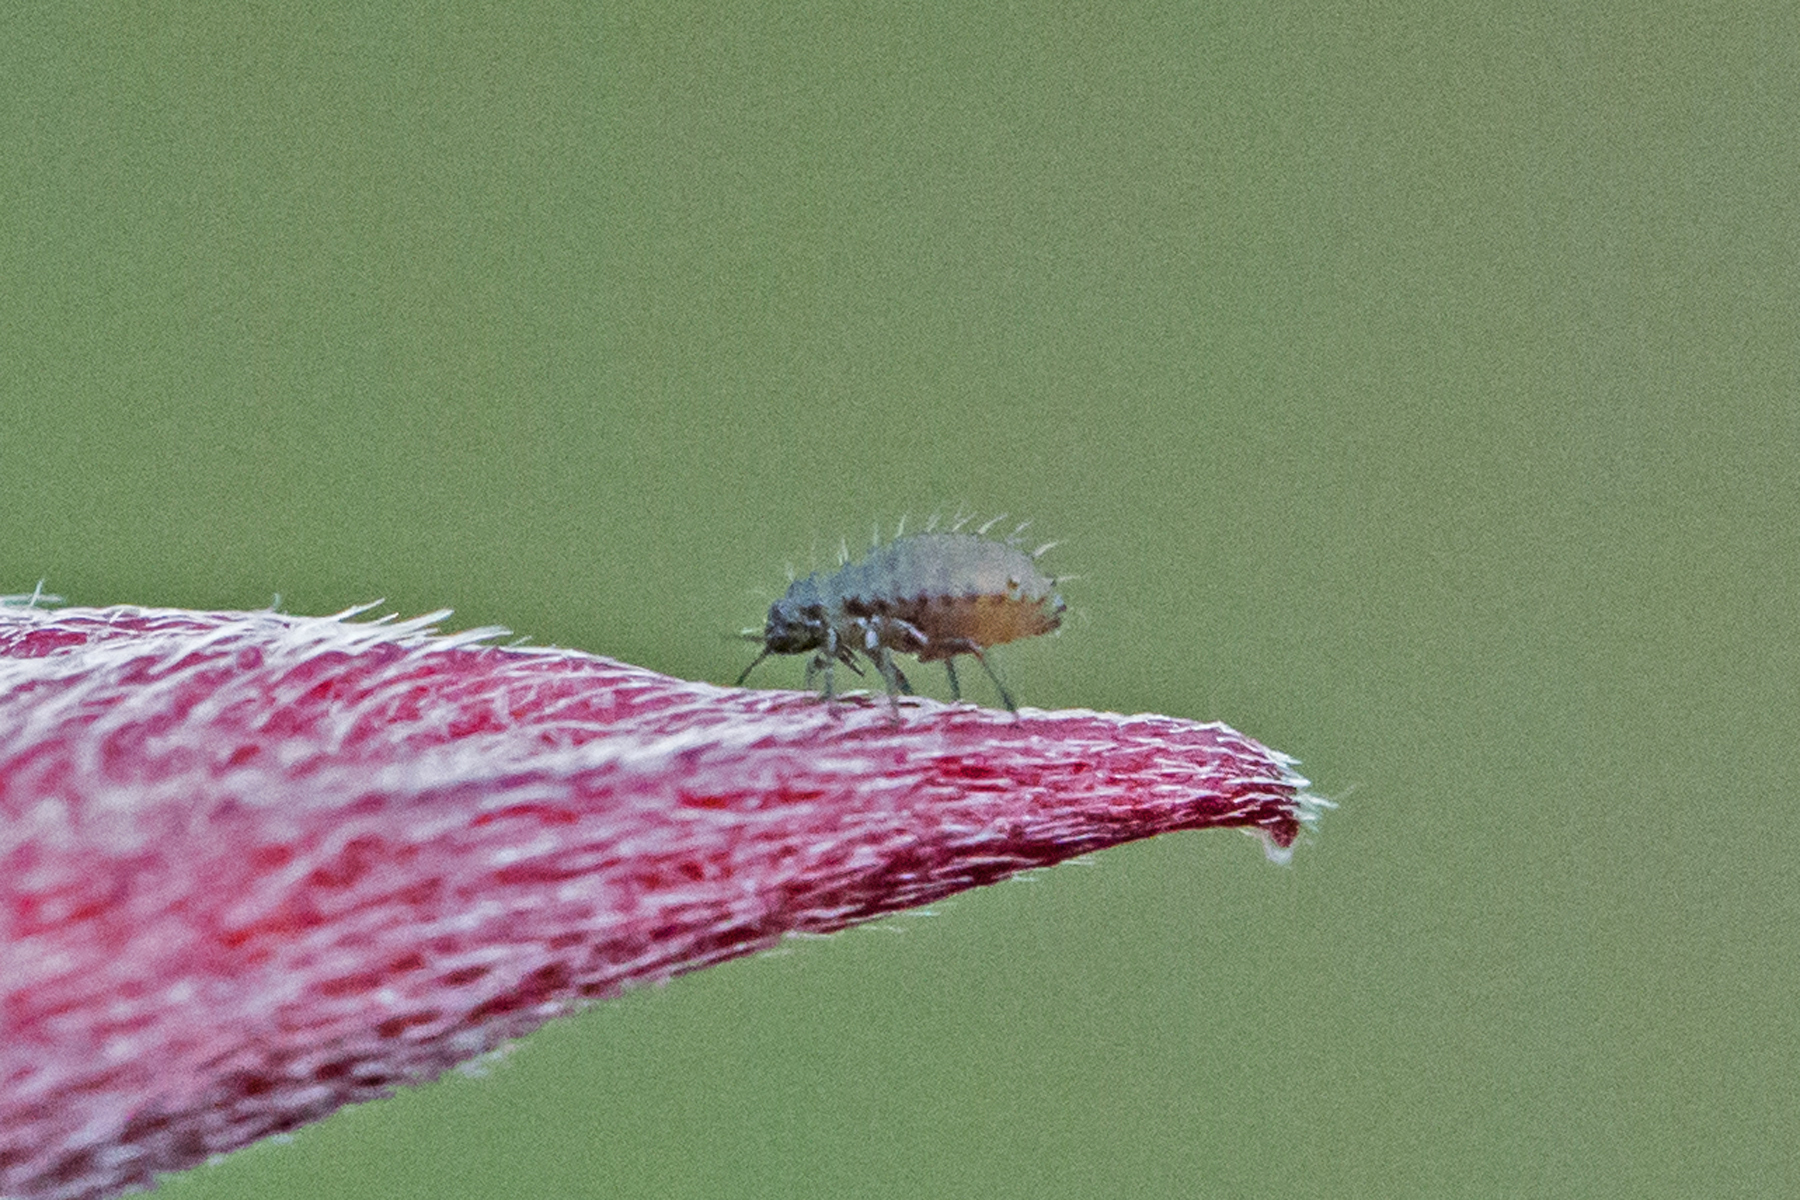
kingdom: Animalia
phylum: Arthropoda
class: Insecta
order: Hemiptera
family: Aphididae
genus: Periphyllus
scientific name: Periphyllus californiensis
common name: California maple aphid
